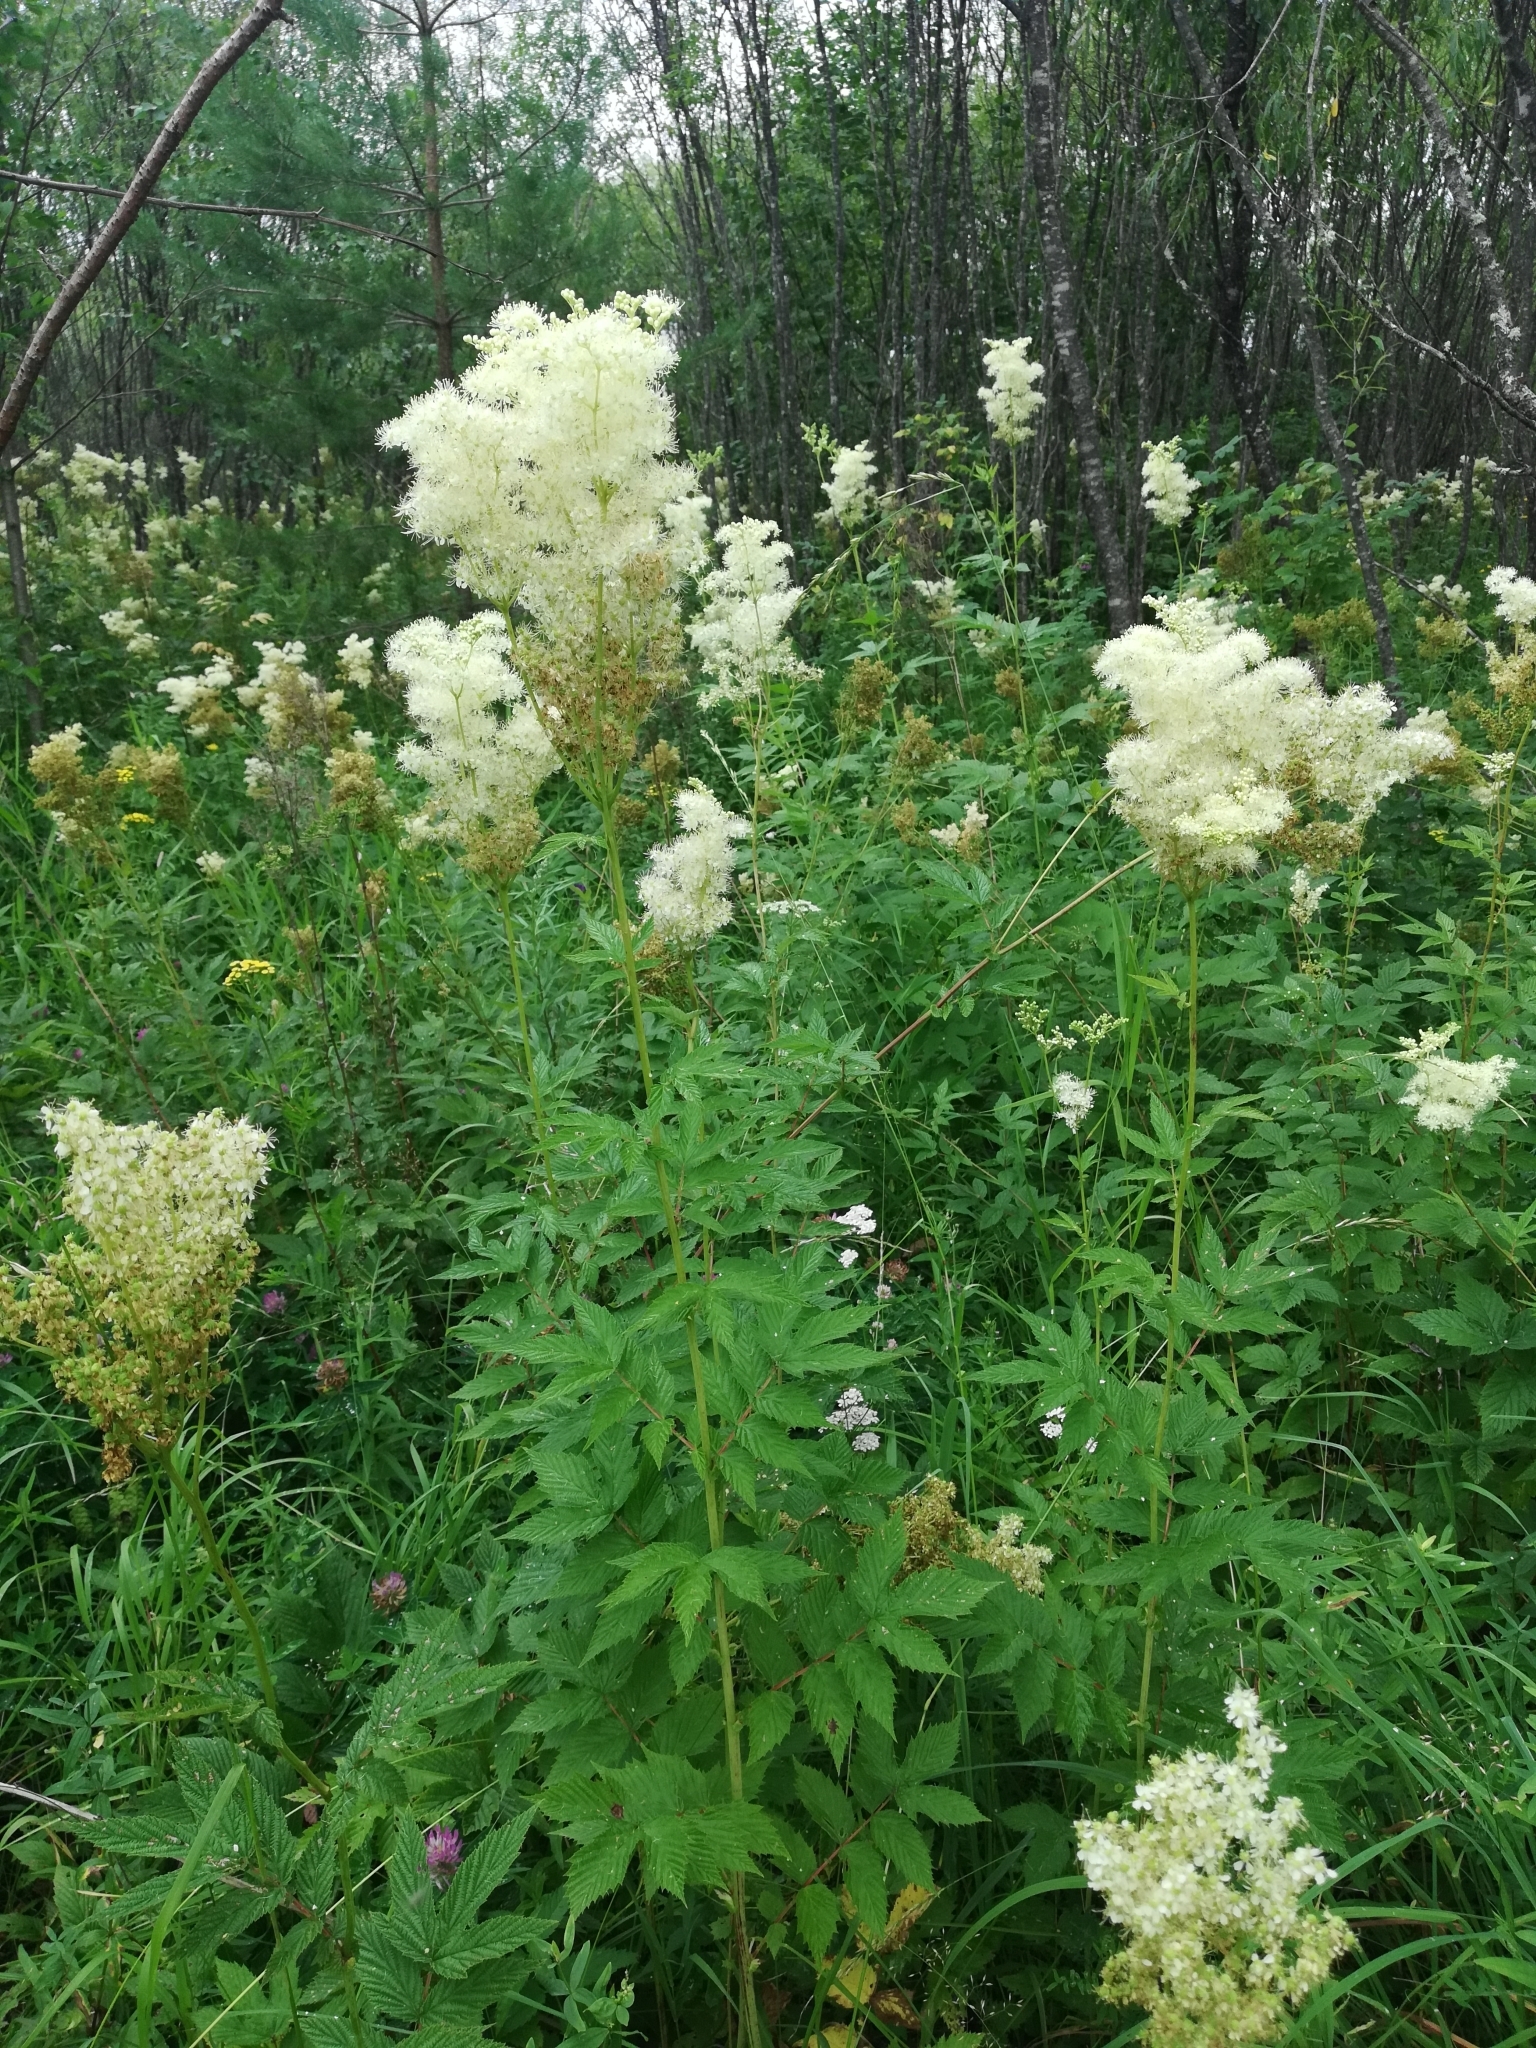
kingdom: Plantae
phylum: Tracheophyta
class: Magnoliopsida
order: Rosales
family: Rosaceae
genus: Filipendula
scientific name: Filipendula ulmaria
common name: Meadowsweet
